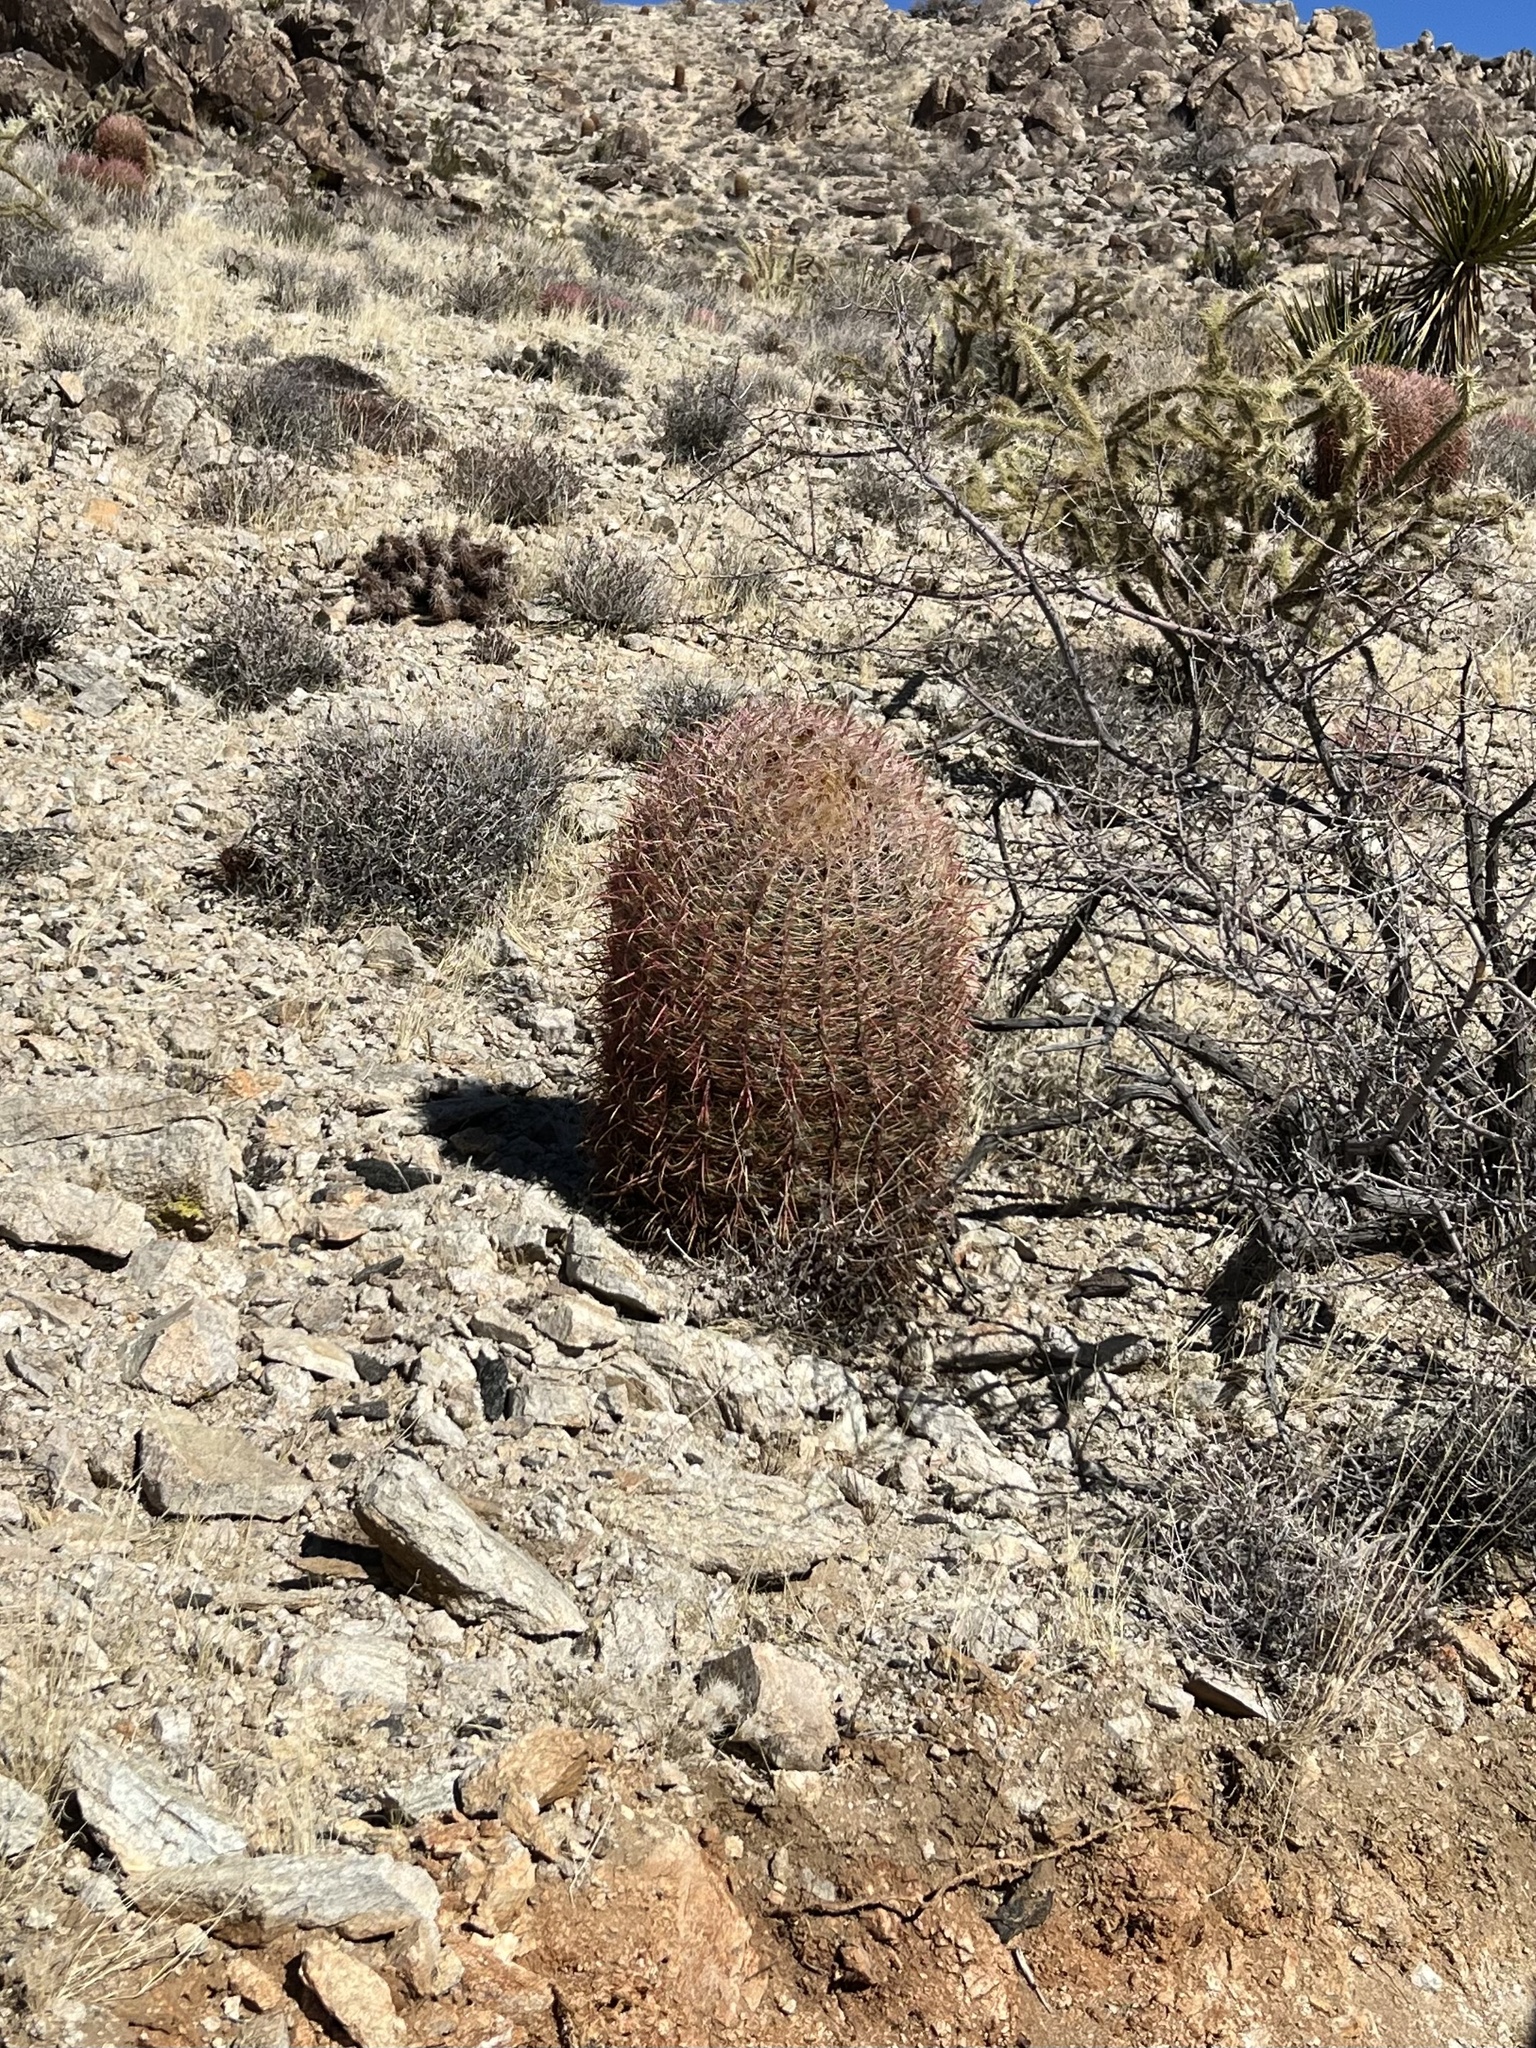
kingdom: Plantae
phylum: Tracheophyta
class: Magnoliopsida
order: Caryophyllales
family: Cactaceae
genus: Ferocactus
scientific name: Ferocactus cylindraceus
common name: California barrel cactus
